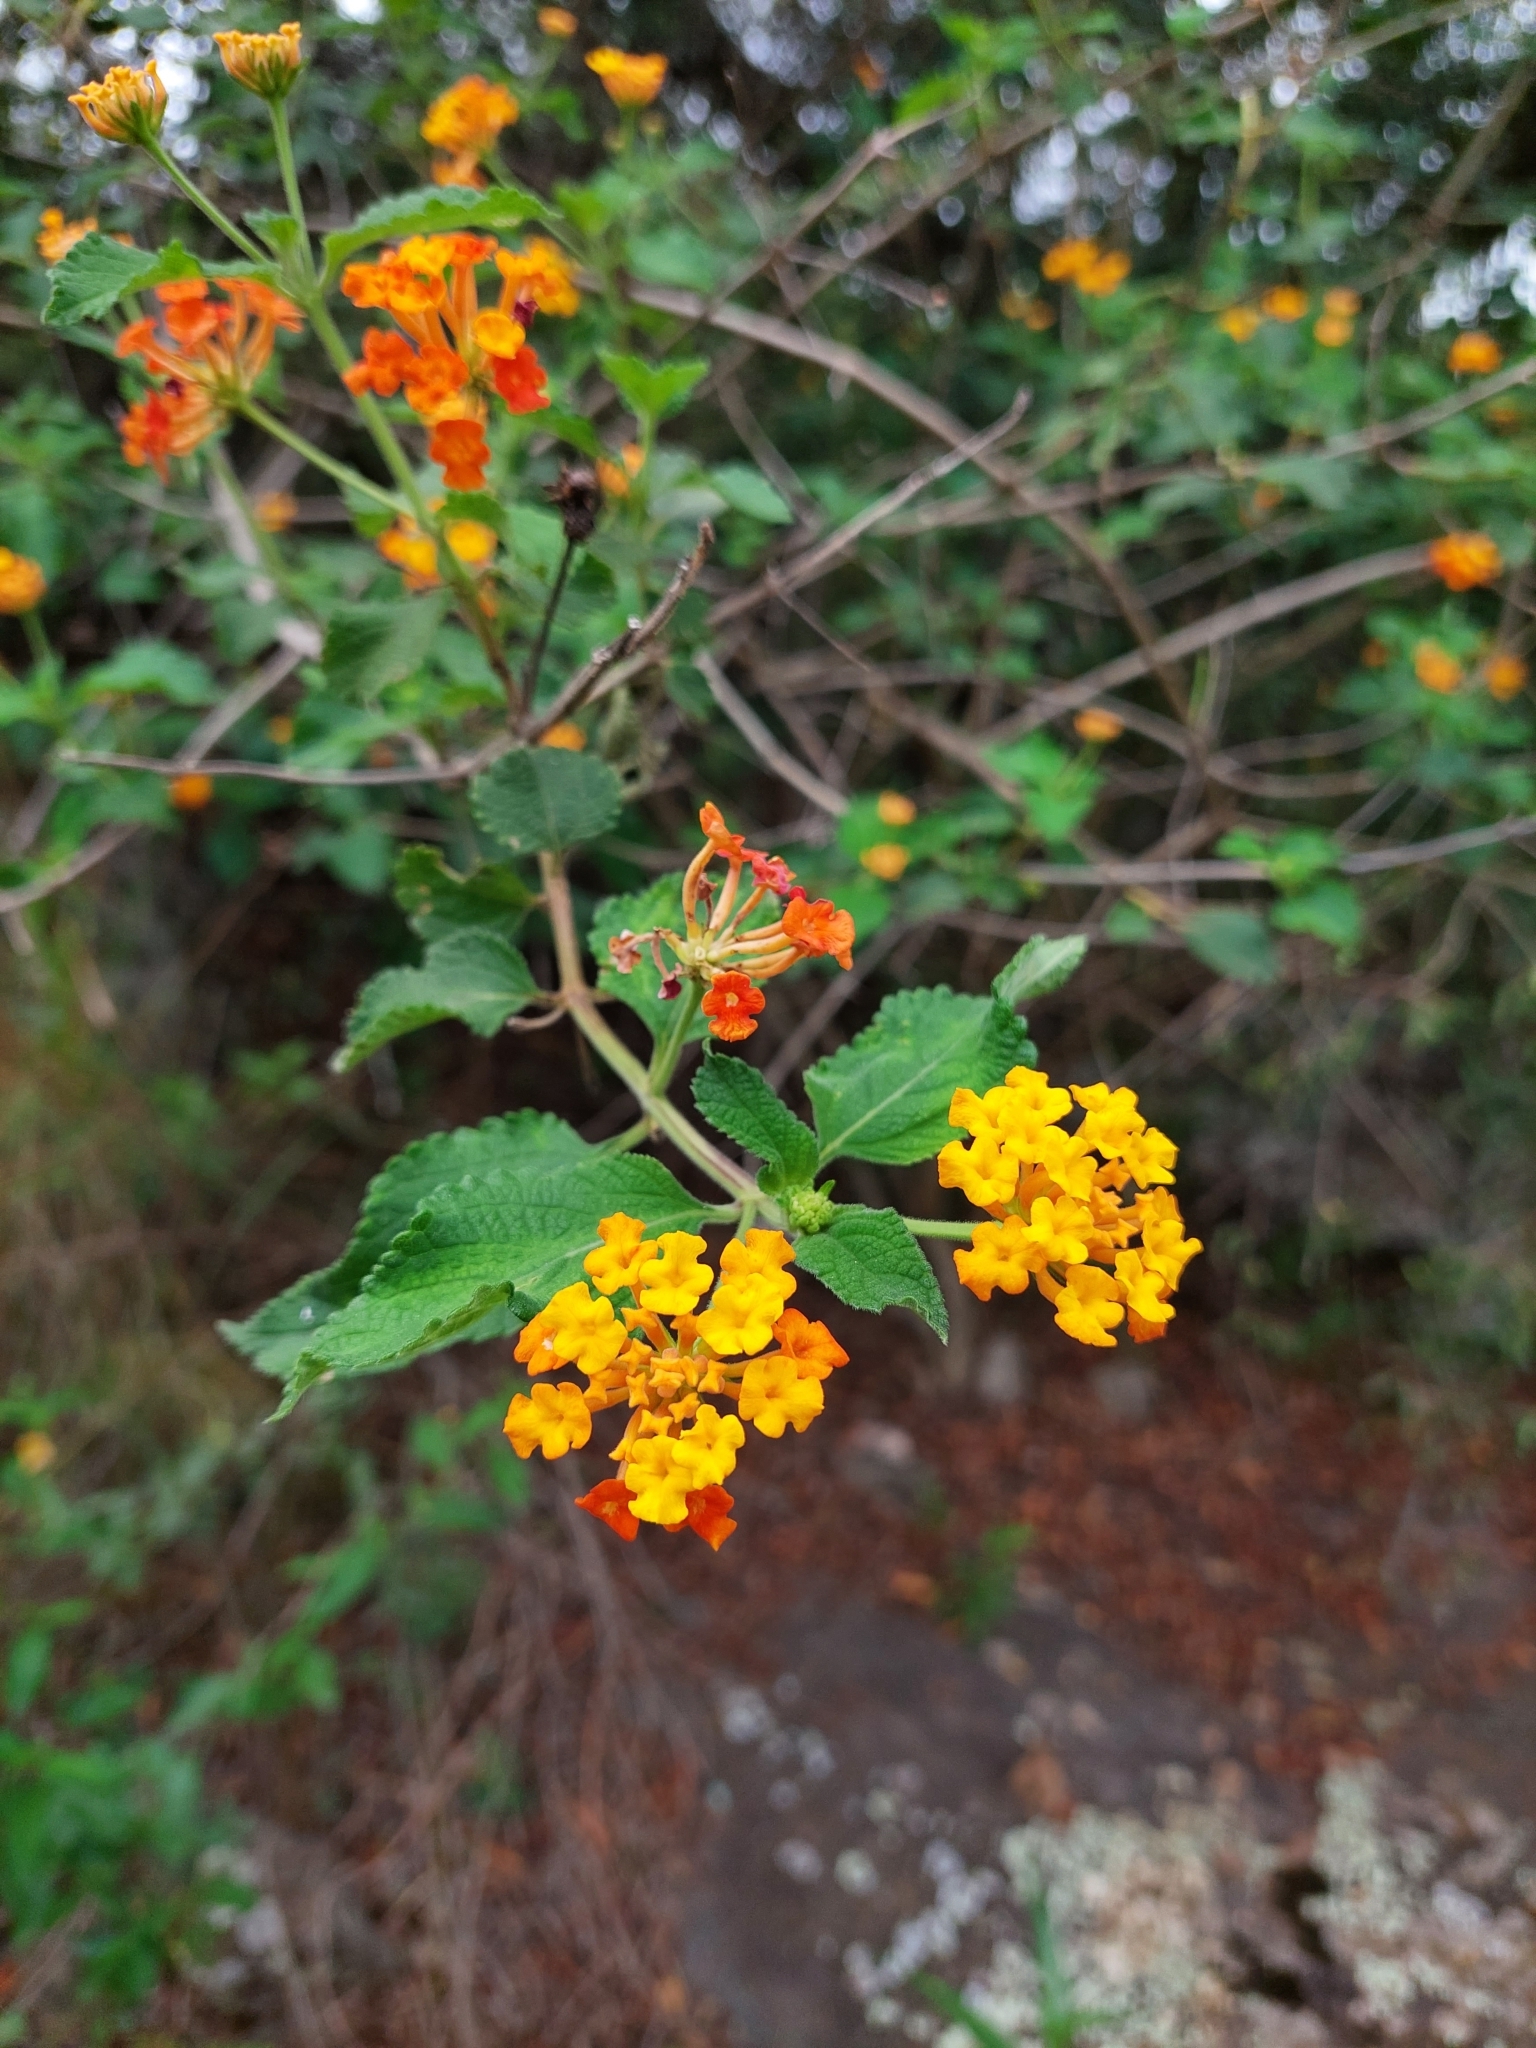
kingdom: Plantae
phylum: Tracheophyta
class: Magnoliopsida
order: Lamiales
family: Verbenaceae
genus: Lantana
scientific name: Lantana camara
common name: Lantana
